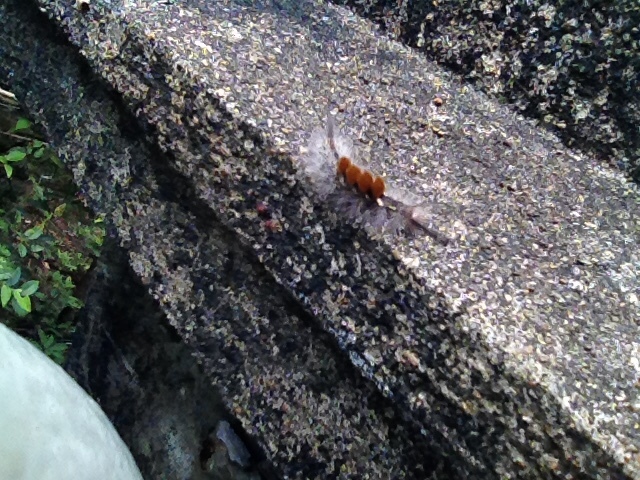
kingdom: Animalia
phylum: Arthropoda
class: Insecta
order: Lepidoptera
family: Erebidae
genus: Dasychira
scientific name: Dasychira chekiangensis
